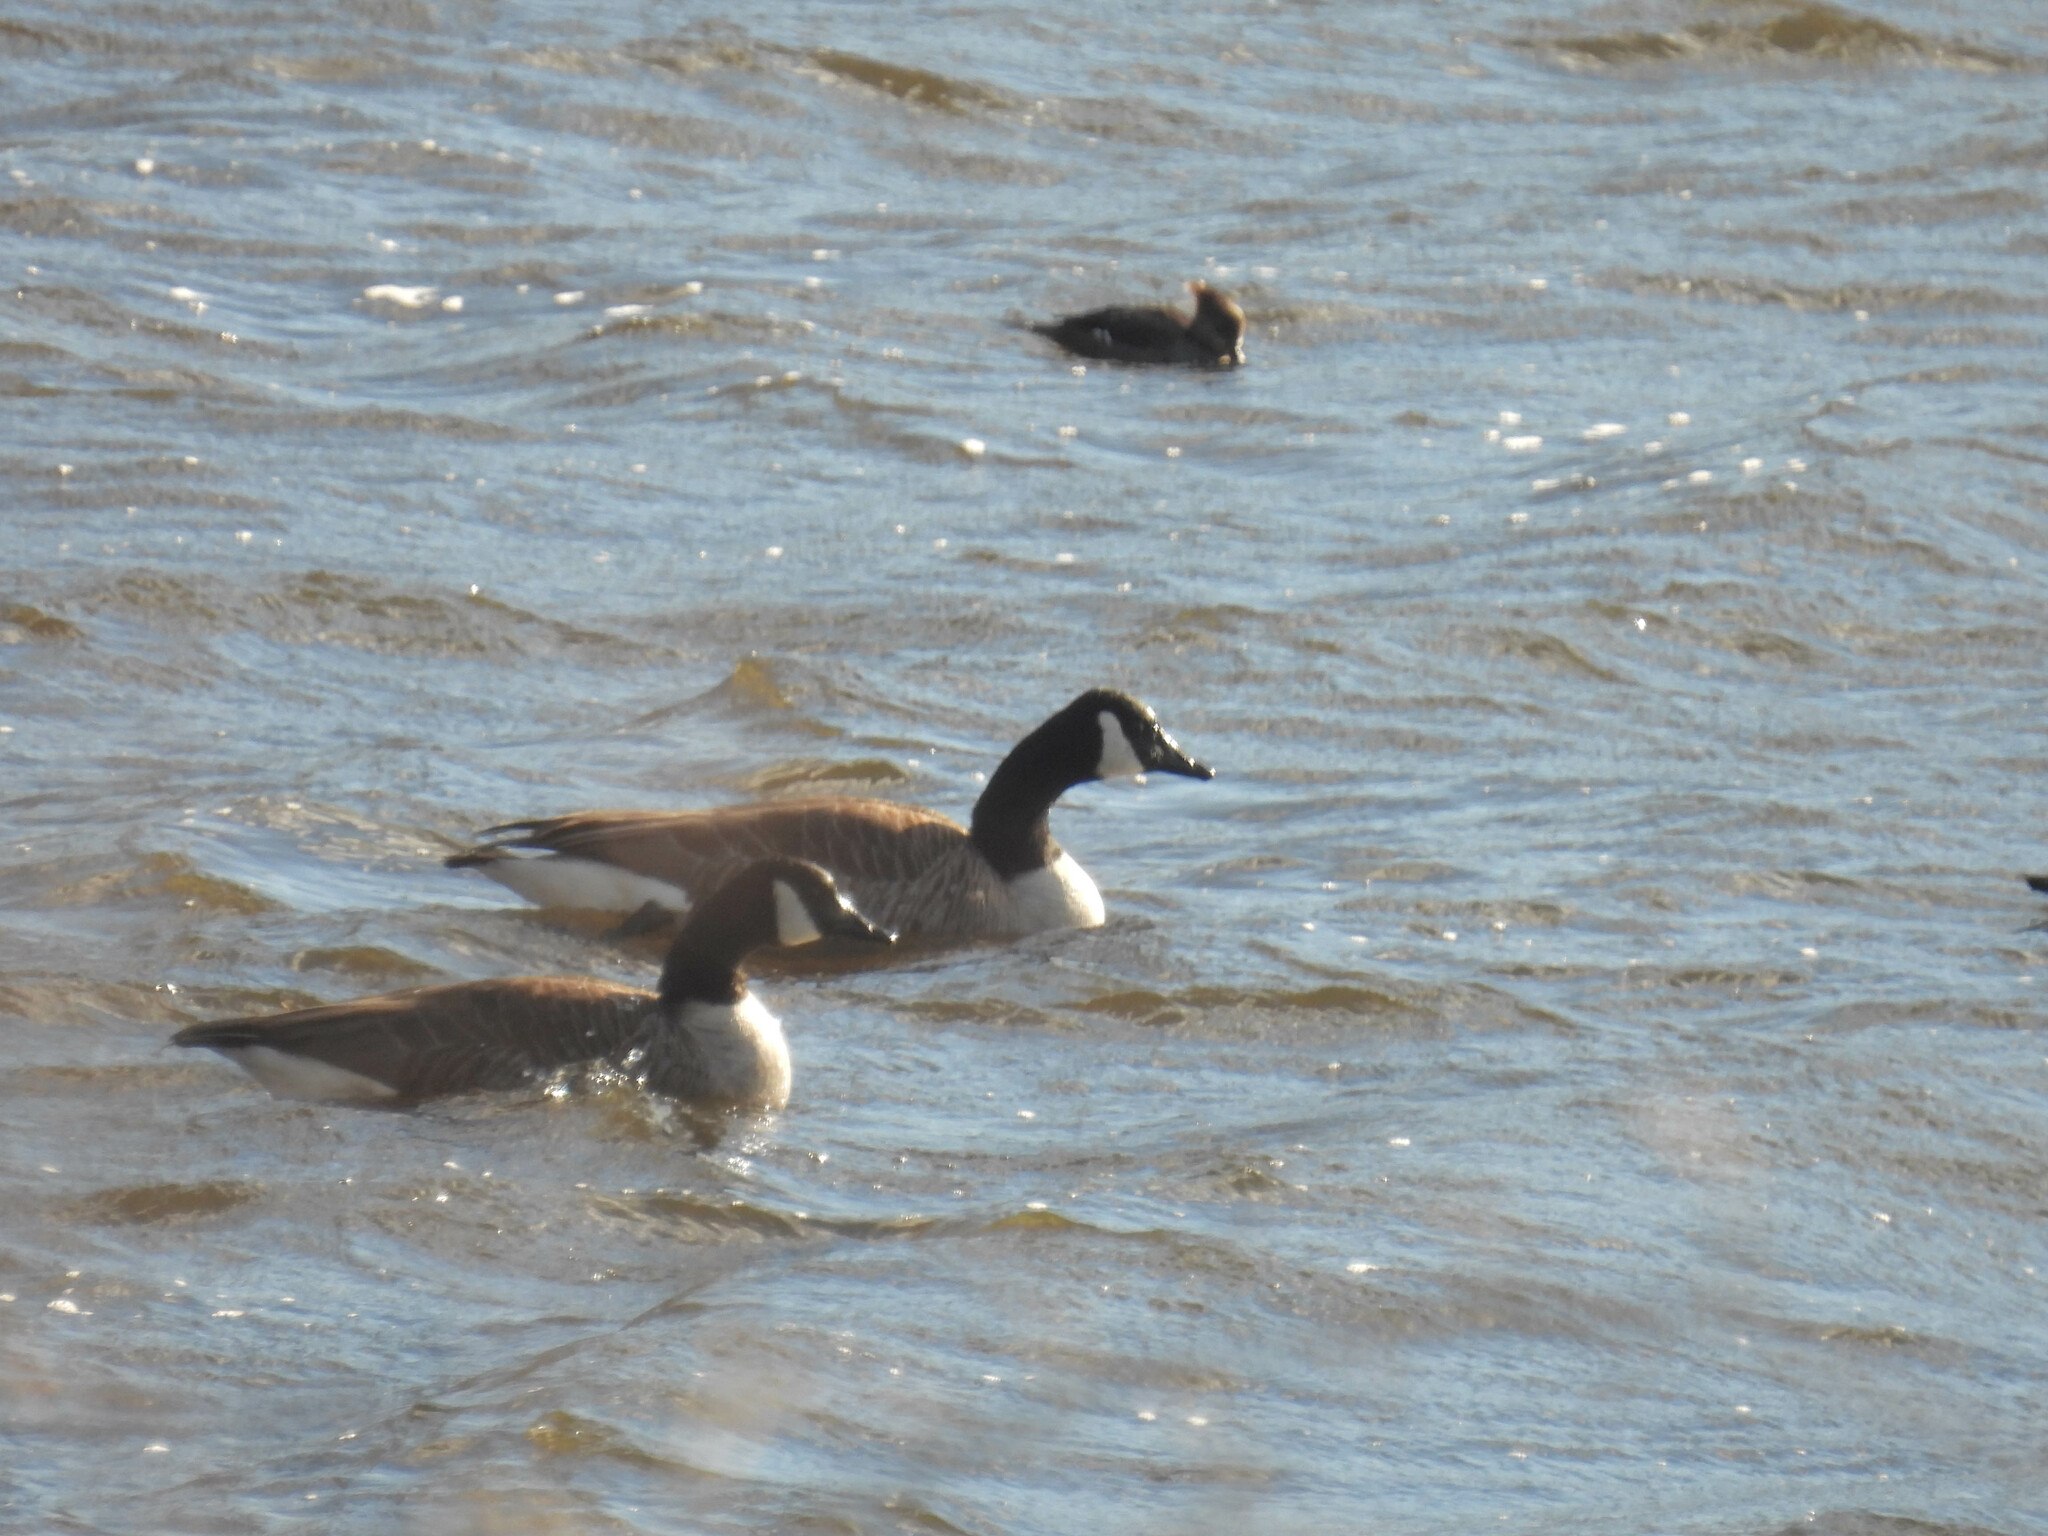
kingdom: Animalia
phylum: Chordata
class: Aves
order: Anseriformes
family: Anatidae
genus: Branta
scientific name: Branta canadensis
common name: Canada goose
